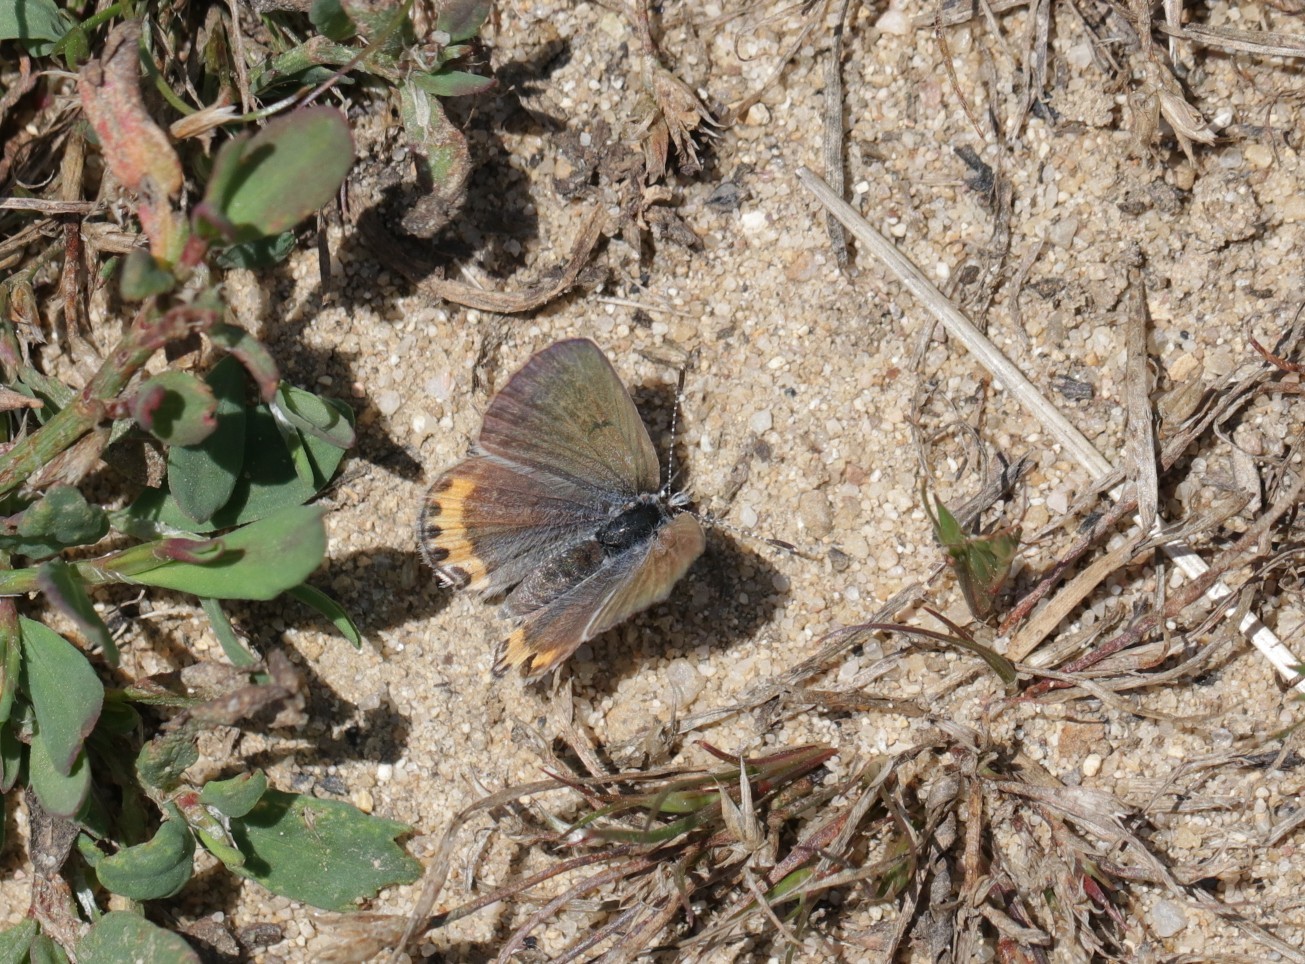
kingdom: Animalia
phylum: Arthropoda
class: Insecta
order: Lepidoptera
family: Lycaenidae
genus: Icaricia
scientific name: Icaricia acmon
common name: Acmon blue
